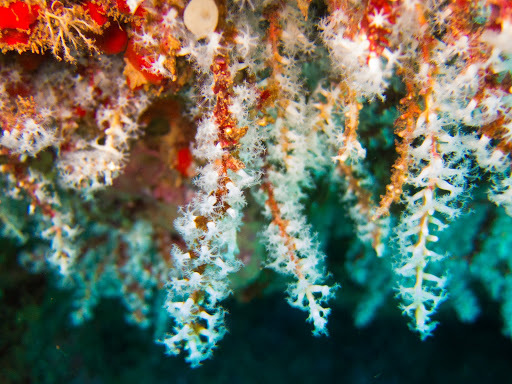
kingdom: Animalia
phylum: Cnidaria
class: Anthozoa
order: Malacalcyonacea
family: Carijoidae
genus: Carijoa
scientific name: Carijoa riisei
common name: Snowflake coral
